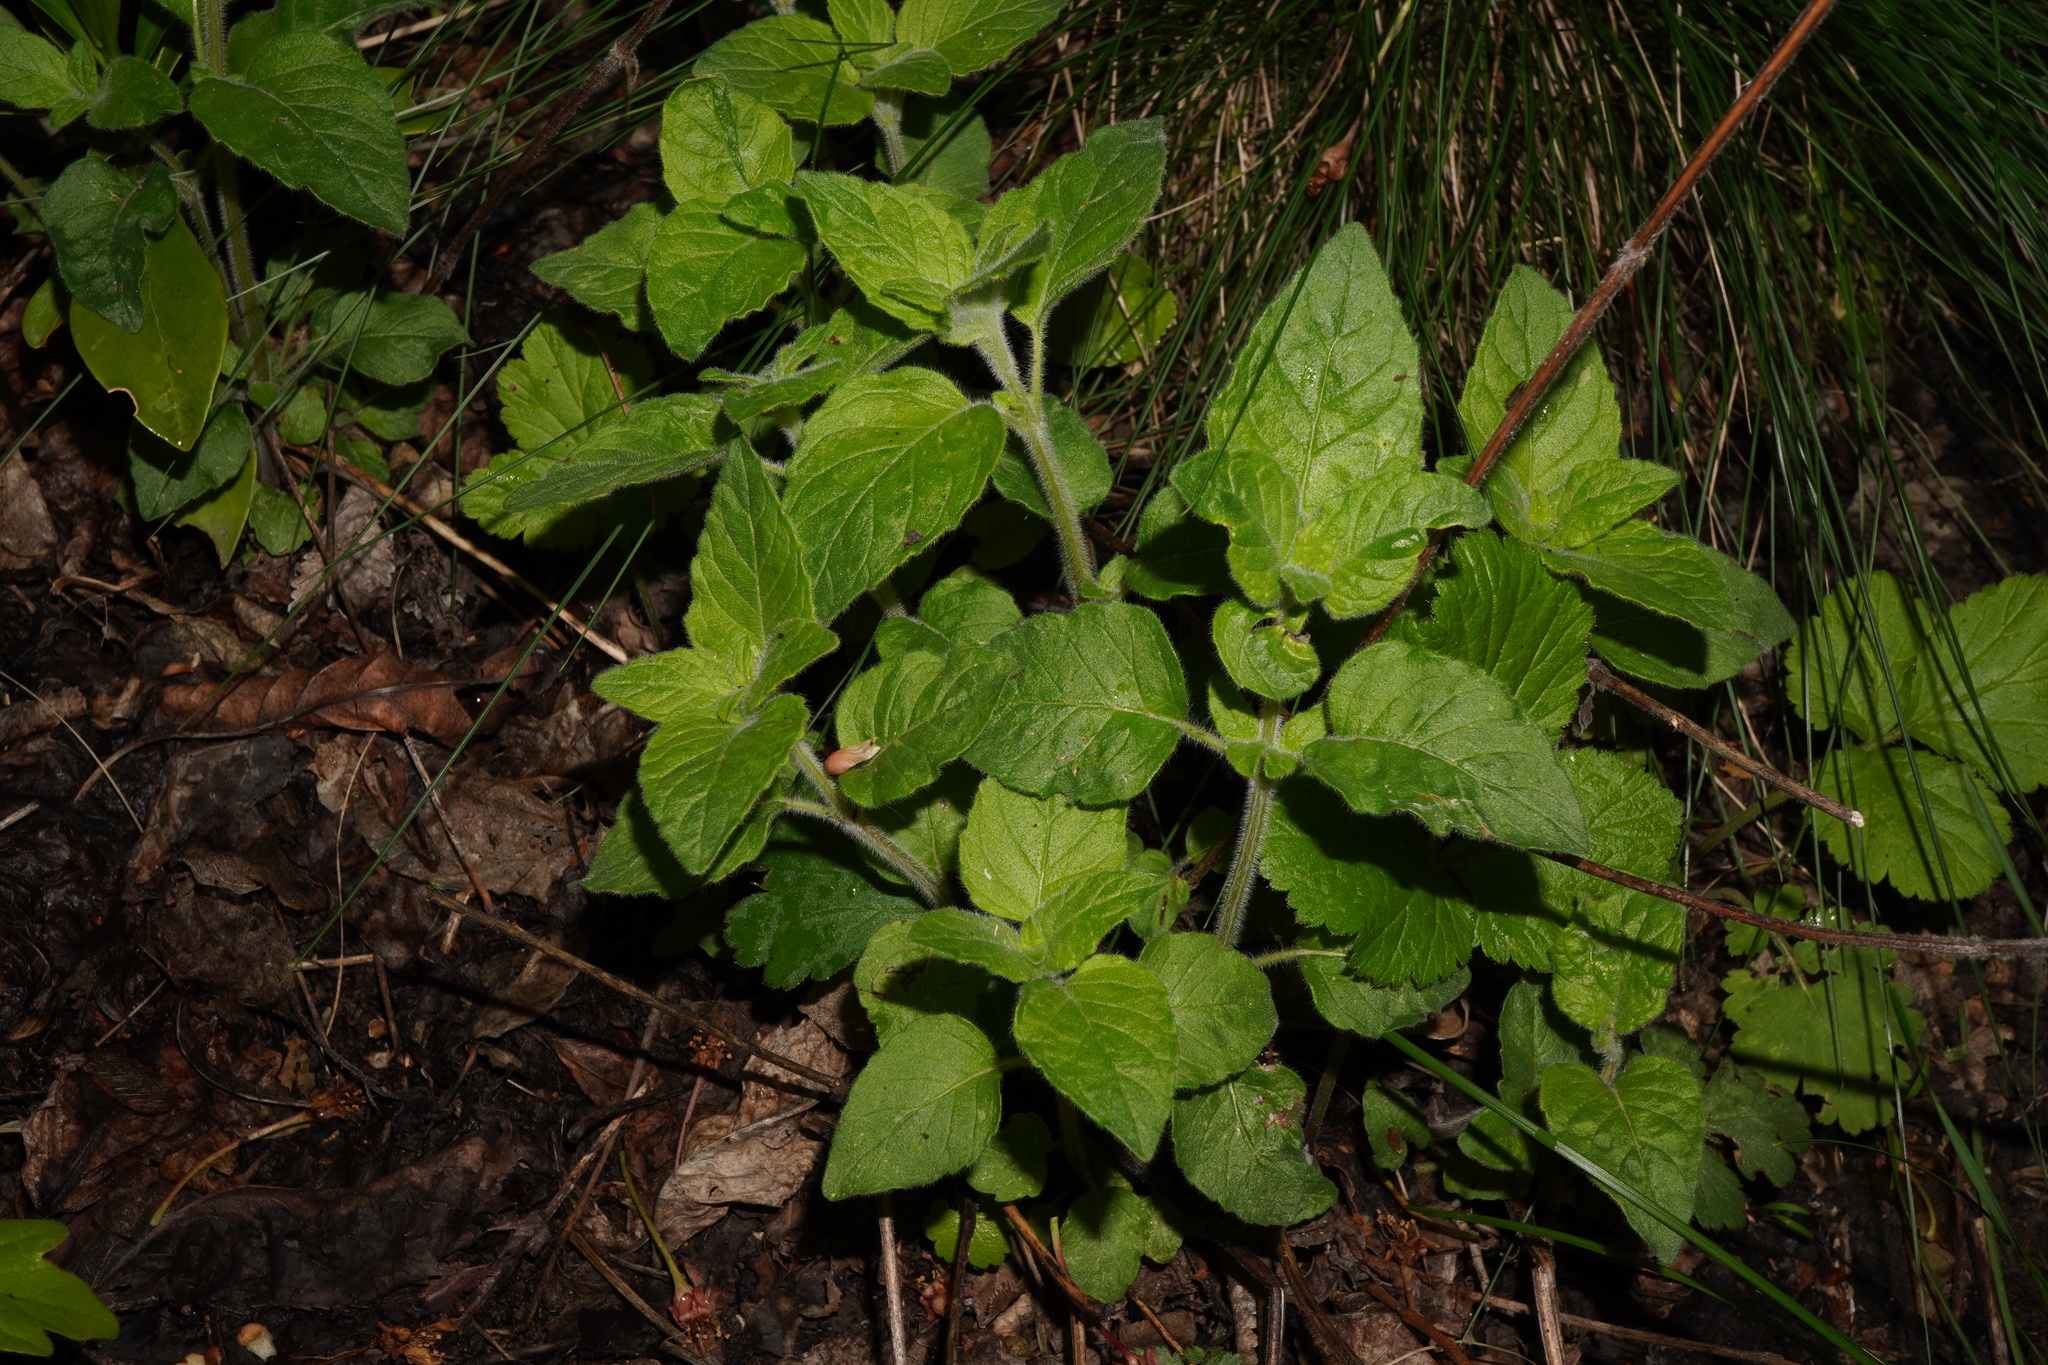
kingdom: Plantae
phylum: Tracheophyta
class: Magnoliopsida
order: Lamiales
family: Lamiaceae
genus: Clinopodium
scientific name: Clinopodium vulgare
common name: Wild basil
